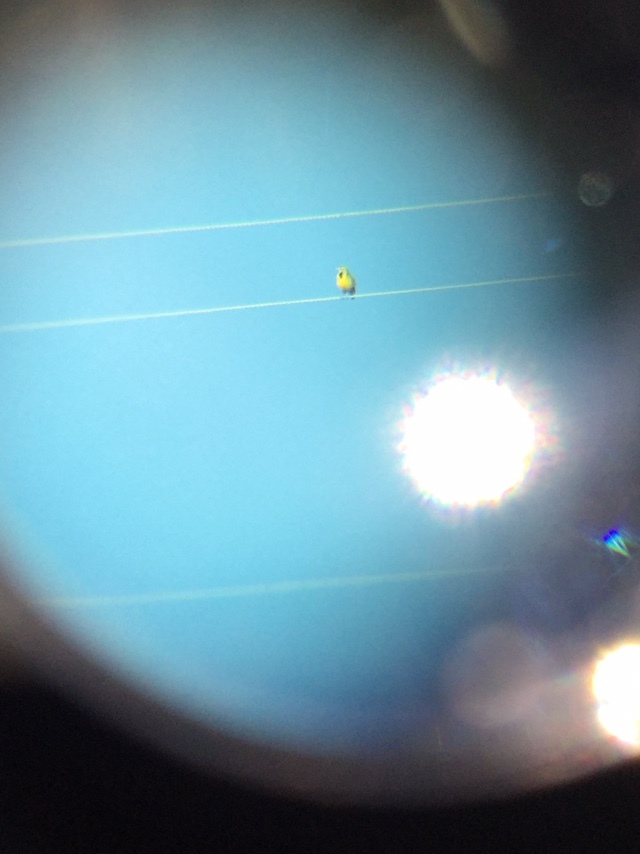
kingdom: Animalia
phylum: Chordata
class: Aves
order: Passeriformes
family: Icteridae
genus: Sturnella
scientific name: Sturnella lilianae
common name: Lilian's meadowlark
